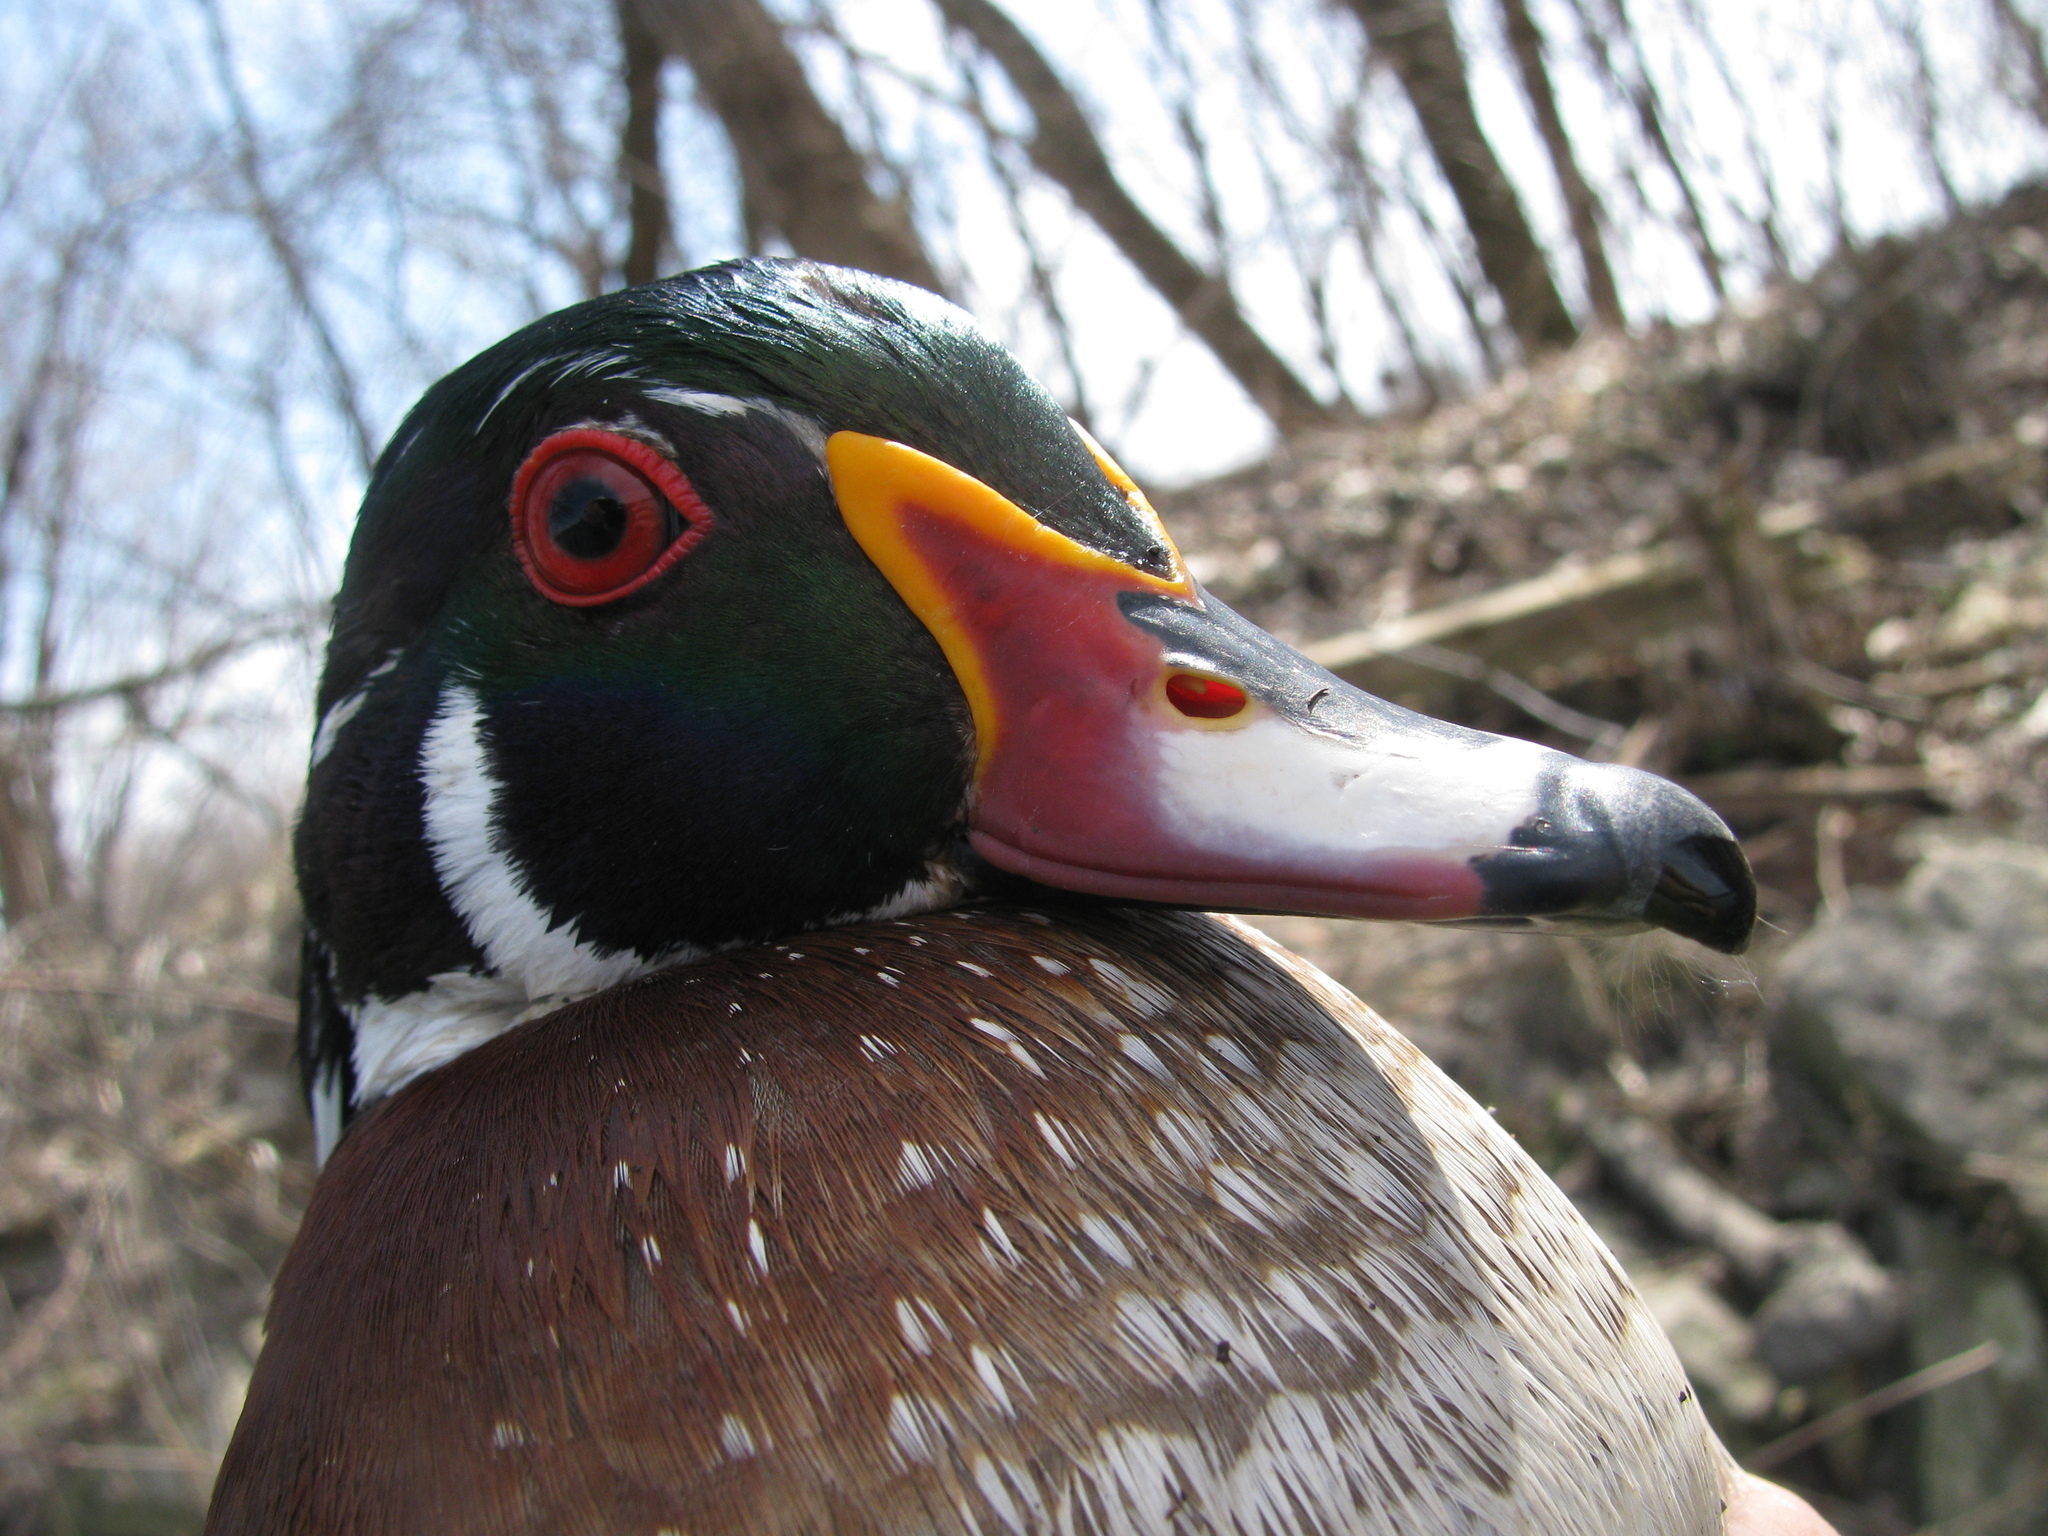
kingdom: Animalia
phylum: Chordata
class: Aves
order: Anseriformes
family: Anatidae
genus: Aix
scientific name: Aix sponsa
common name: Wood duck
